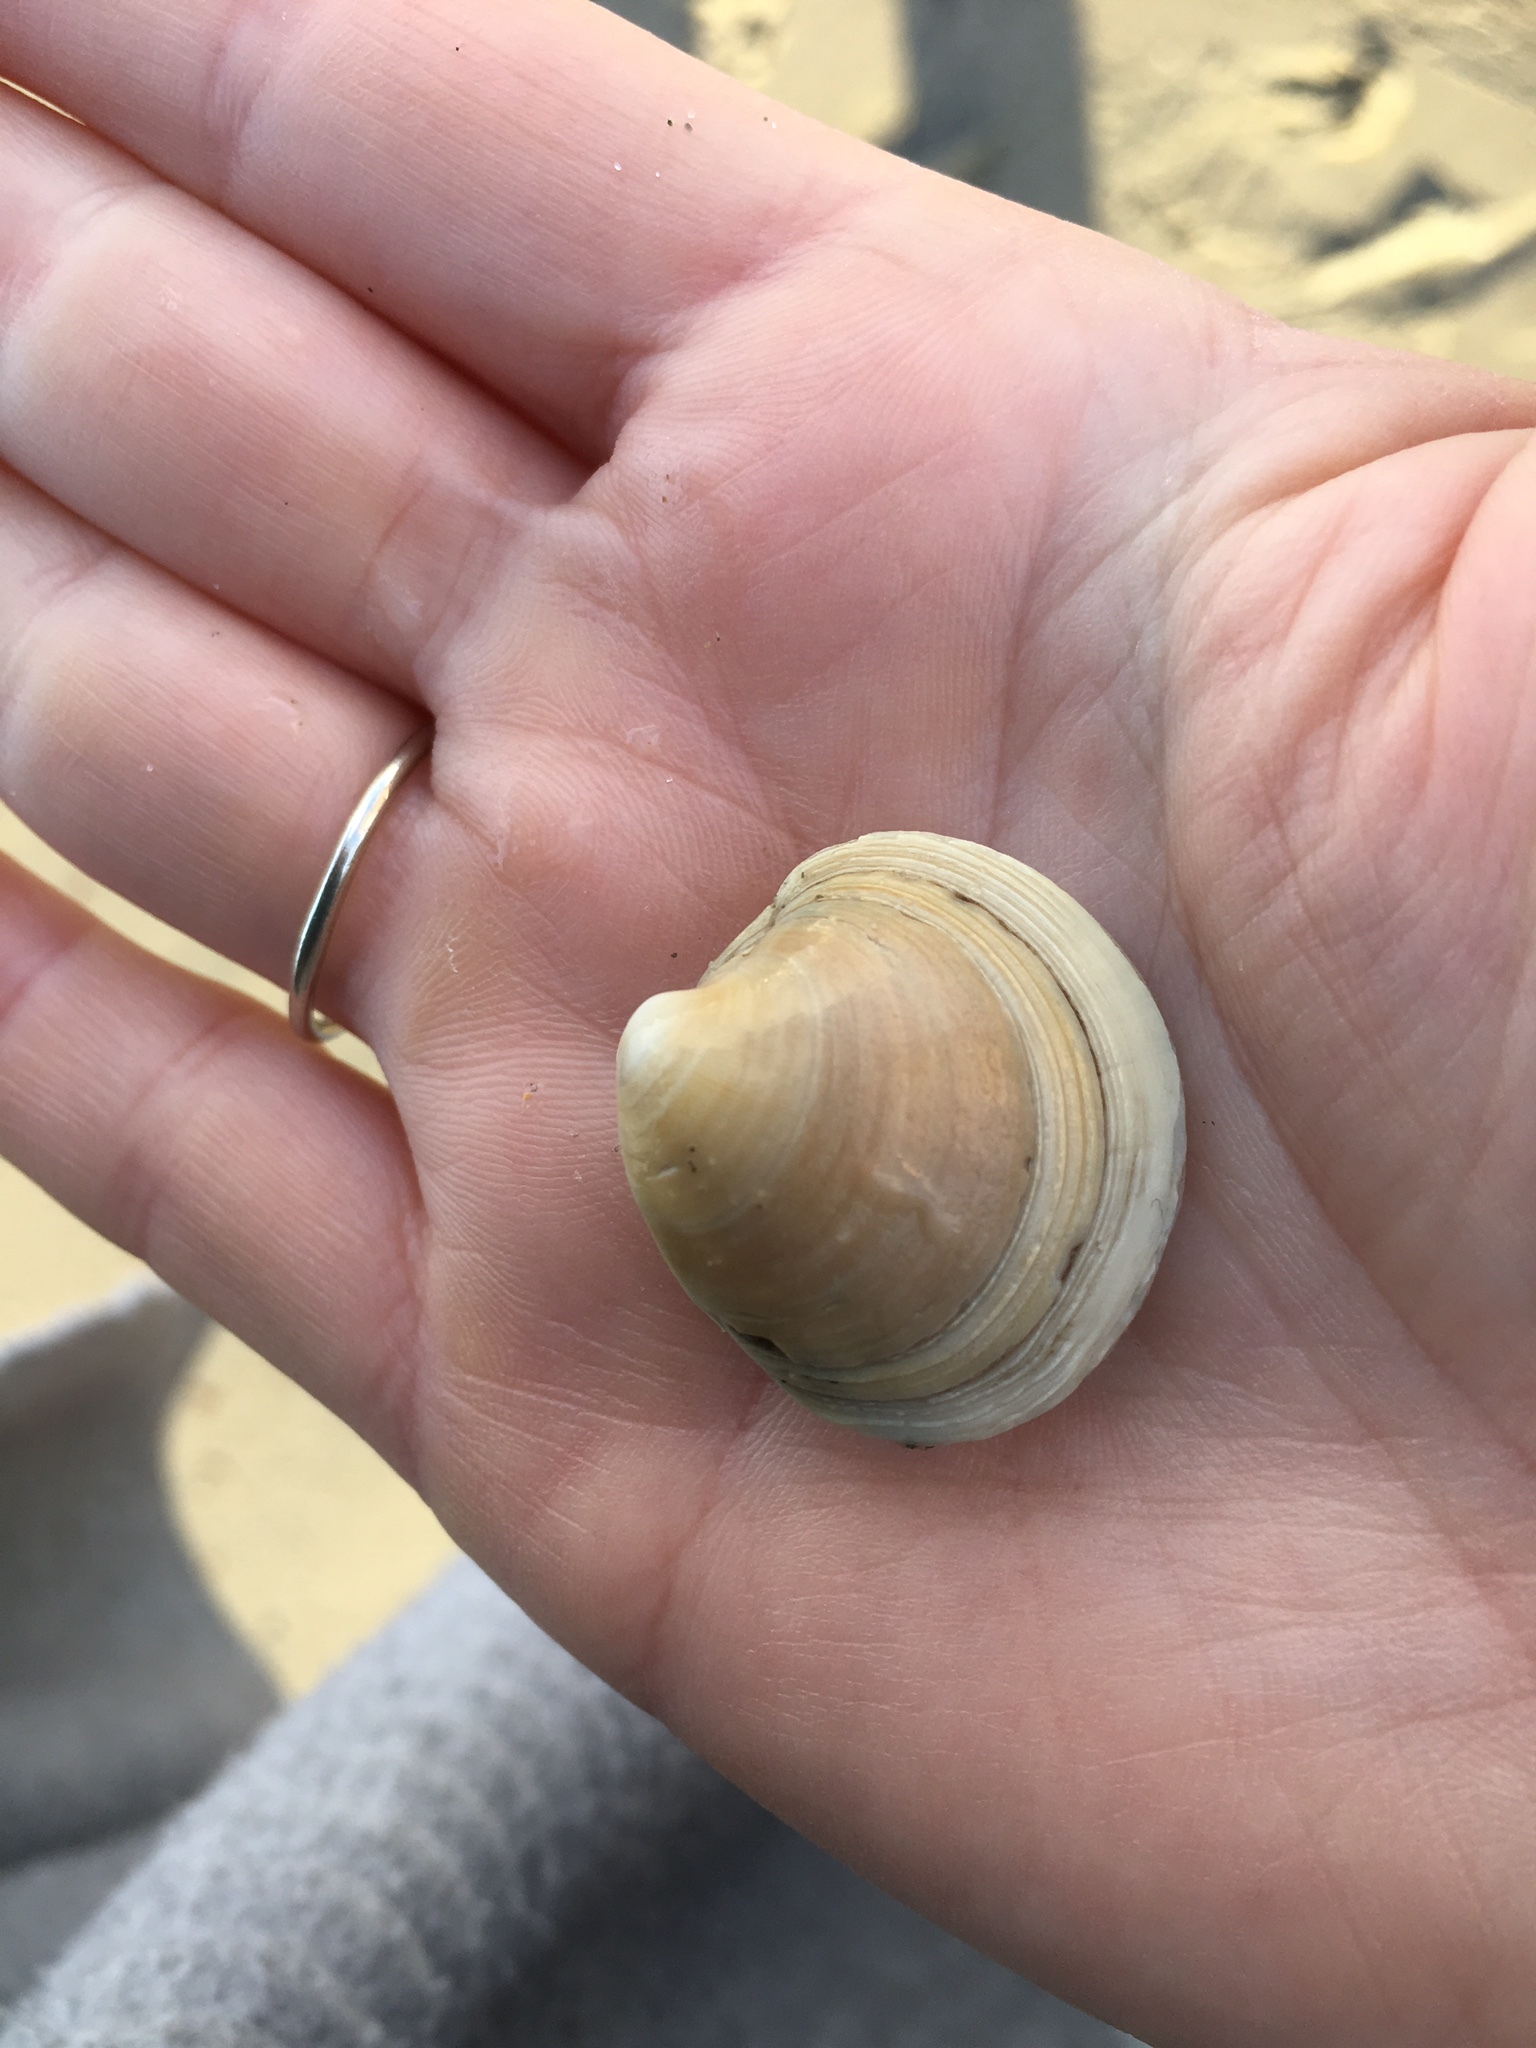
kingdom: Animalia
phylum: Mollusca
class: Bivalvia
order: Venerida
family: Veneridae
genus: Mercenaria
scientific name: Mercenaria mercenaria
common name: American hard-shelled clam
